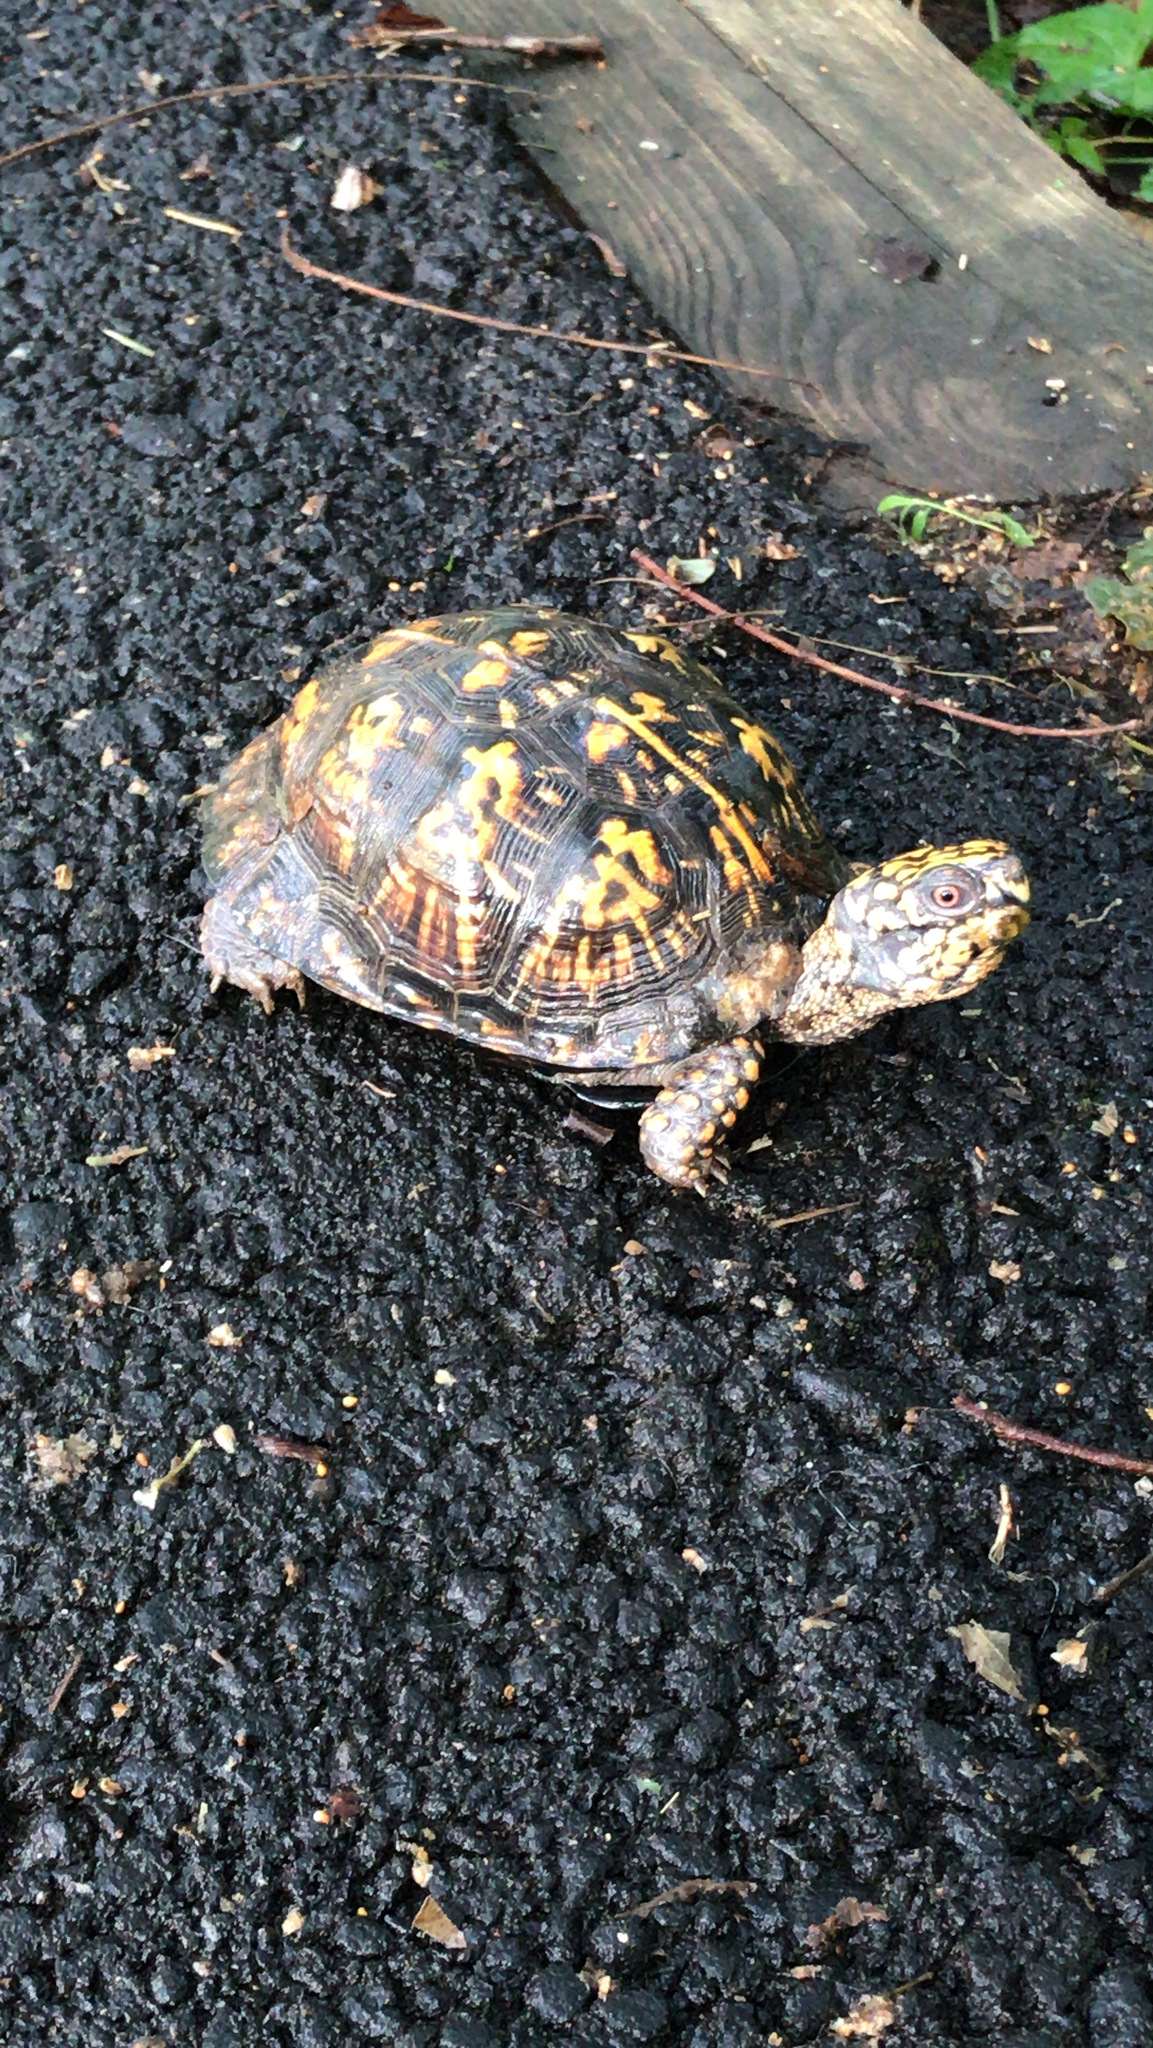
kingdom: Animalia
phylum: Chordata
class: Testudines
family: Emydidae
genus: Terrapene
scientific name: Terrapene carolina
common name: Common box turtle
